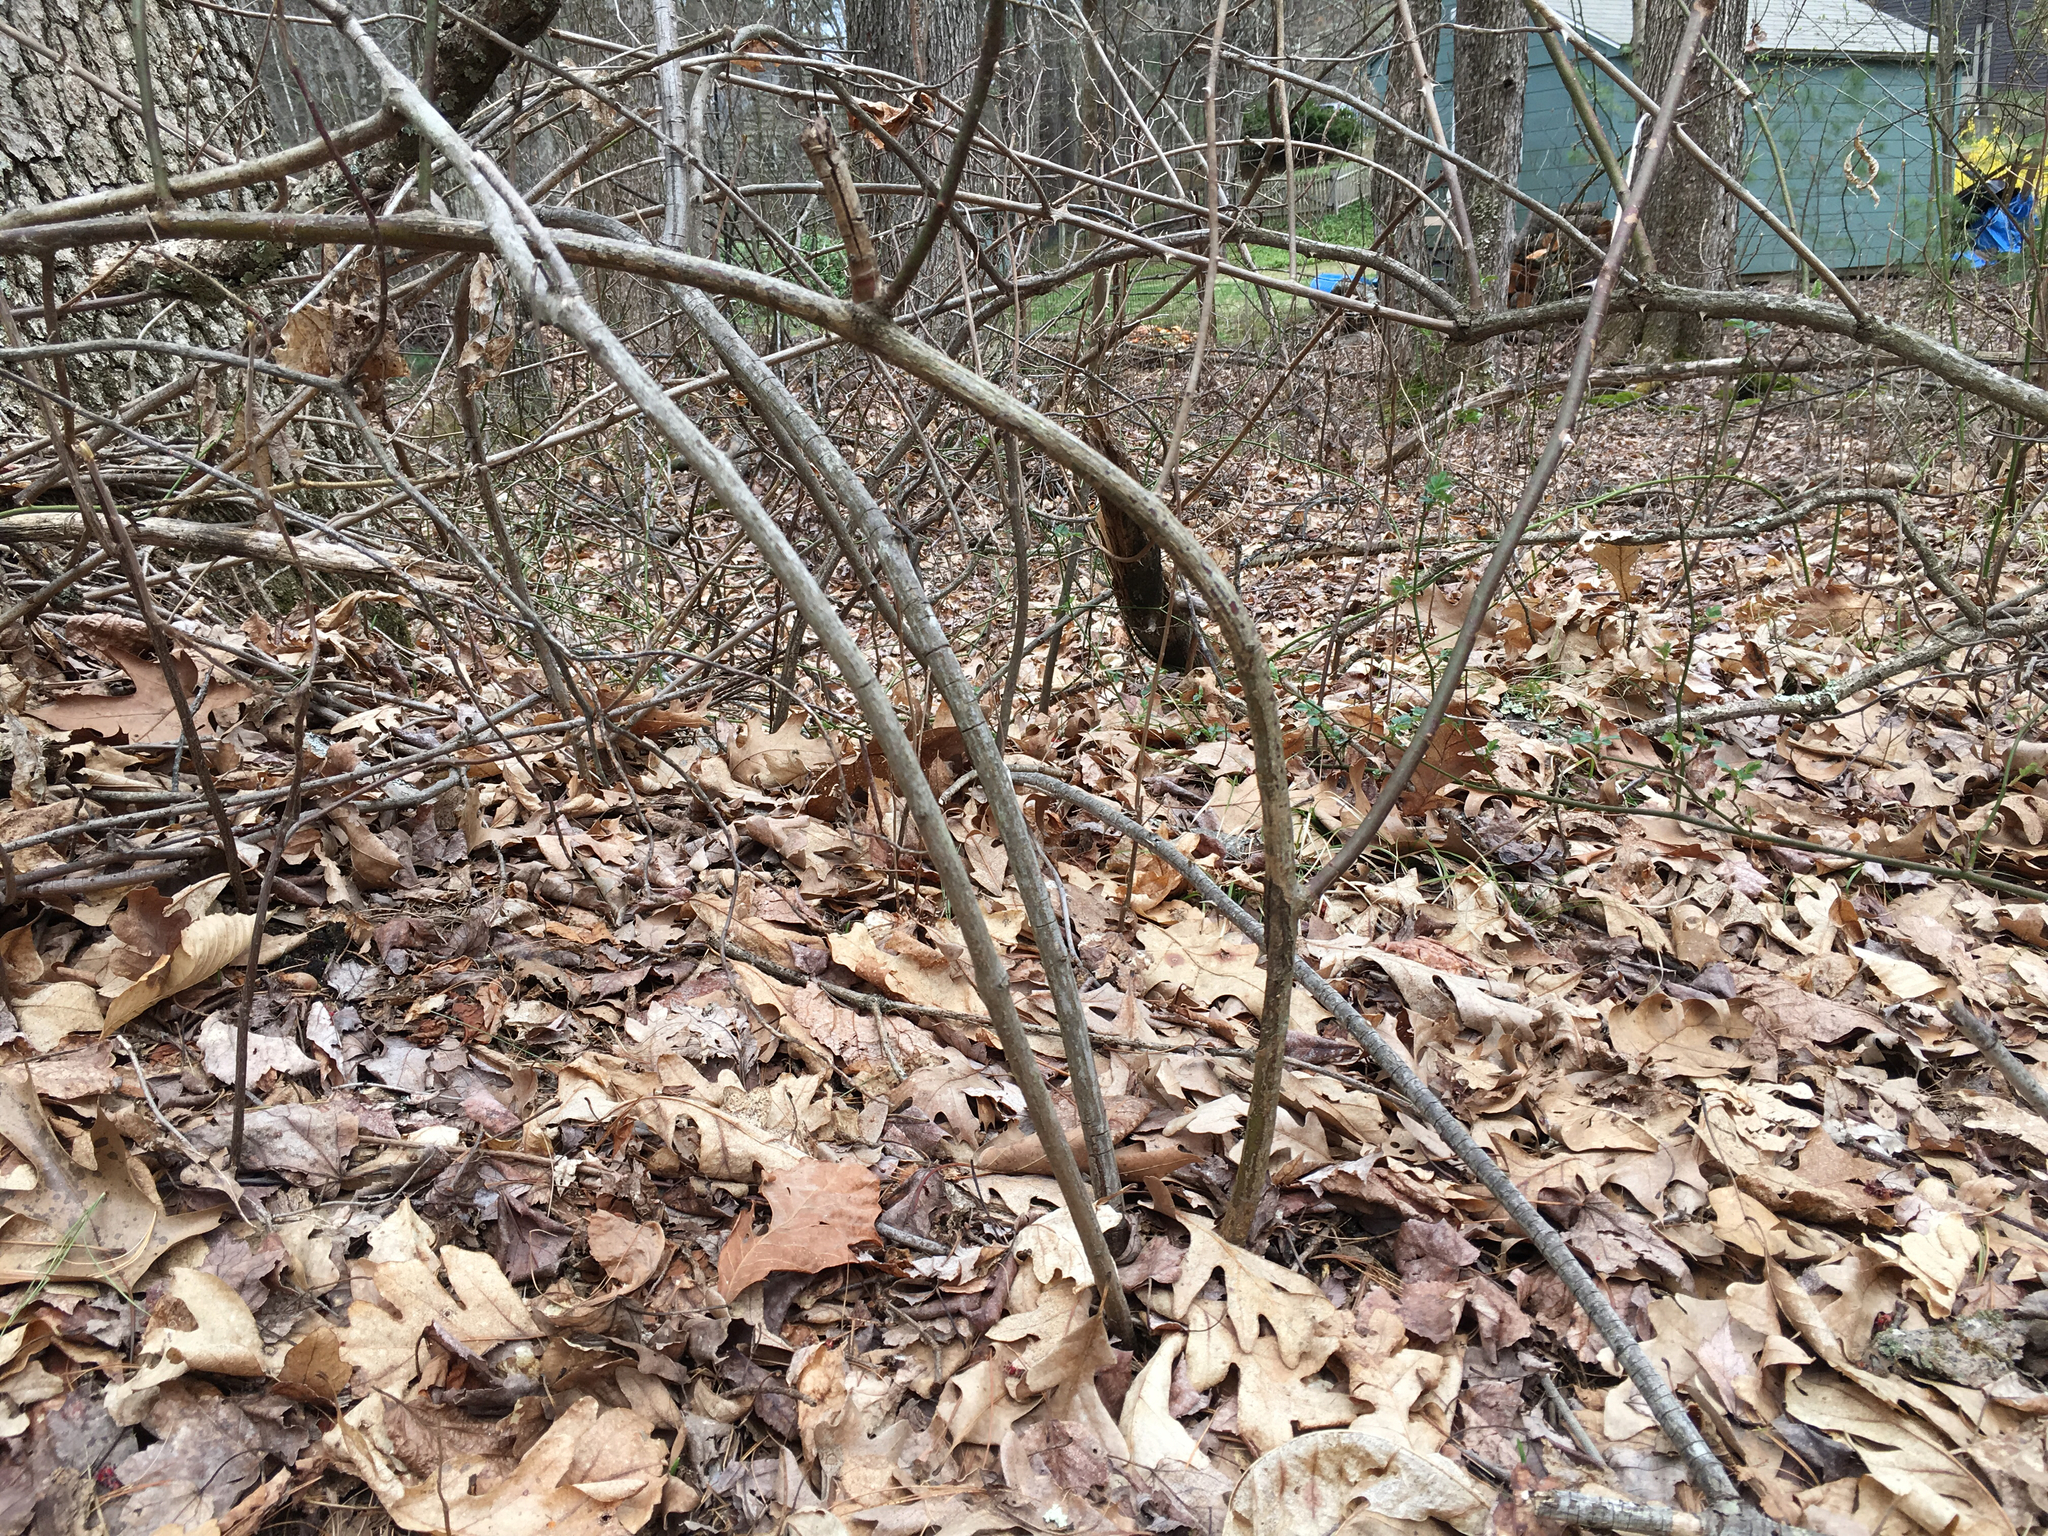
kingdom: Plantae
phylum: Tracheophyta
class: Magnoliopsida
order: Rosales
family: Rosaceae
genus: Rosa
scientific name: Rosa multiflora
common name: Multiflora rose
